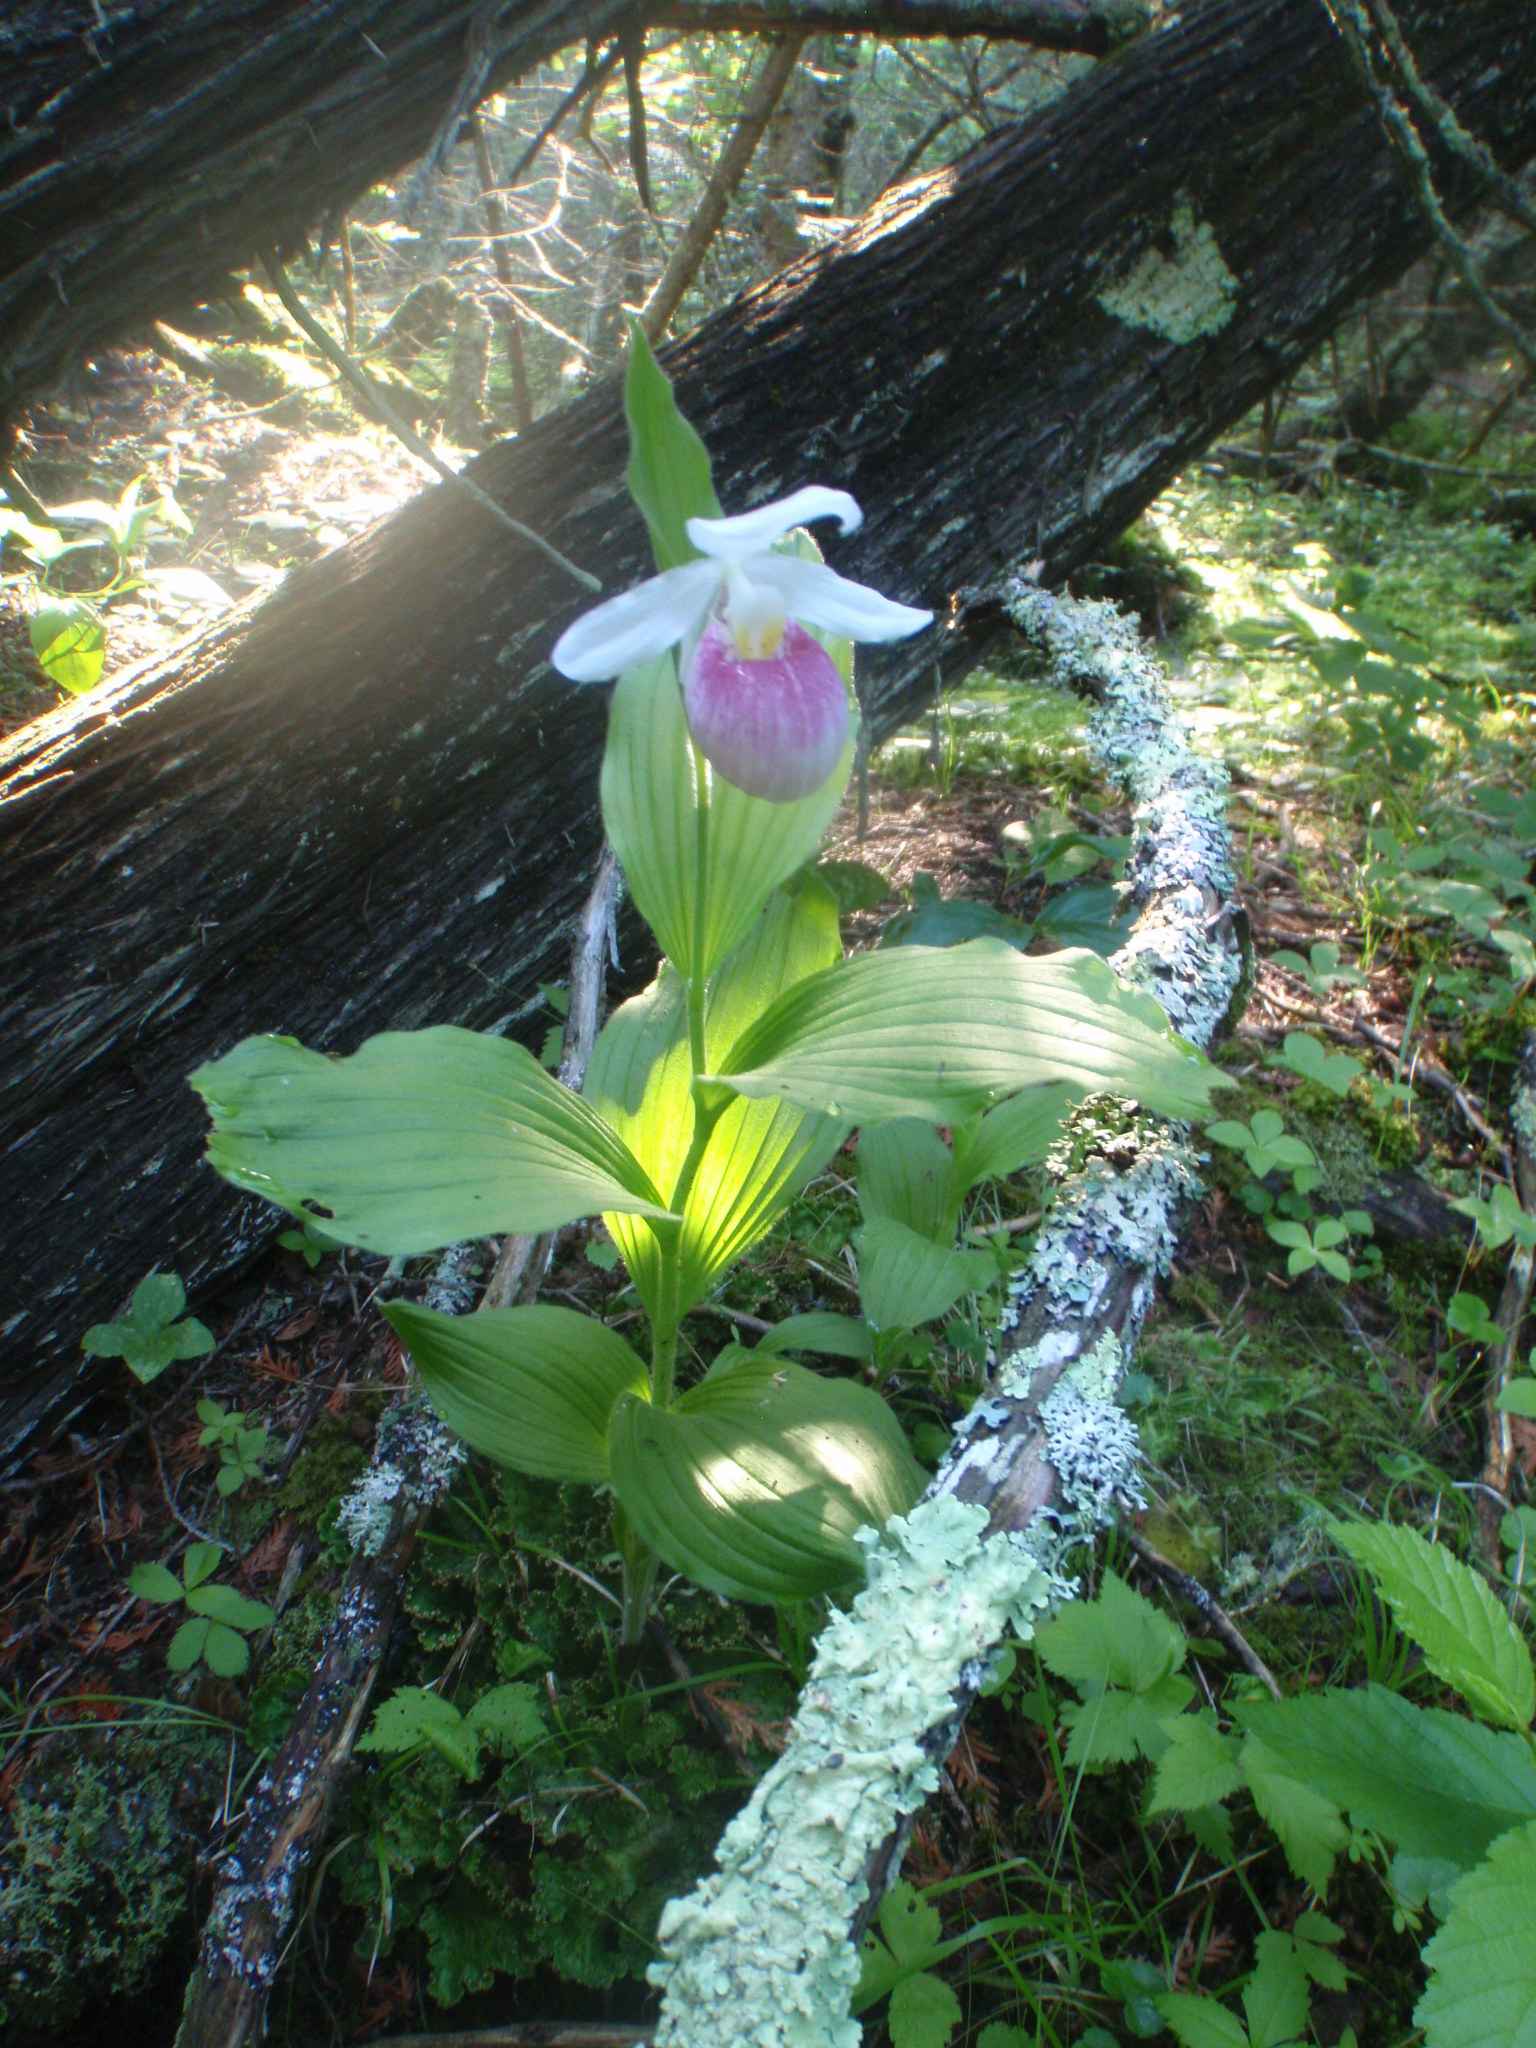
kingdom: Plantae
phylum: Tracheophyta
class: Liliopsida
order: Asparagales
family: Orchidaceae
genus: Cypripedium
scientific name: Cypripedium reginae
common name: Queen lady's-slipper
